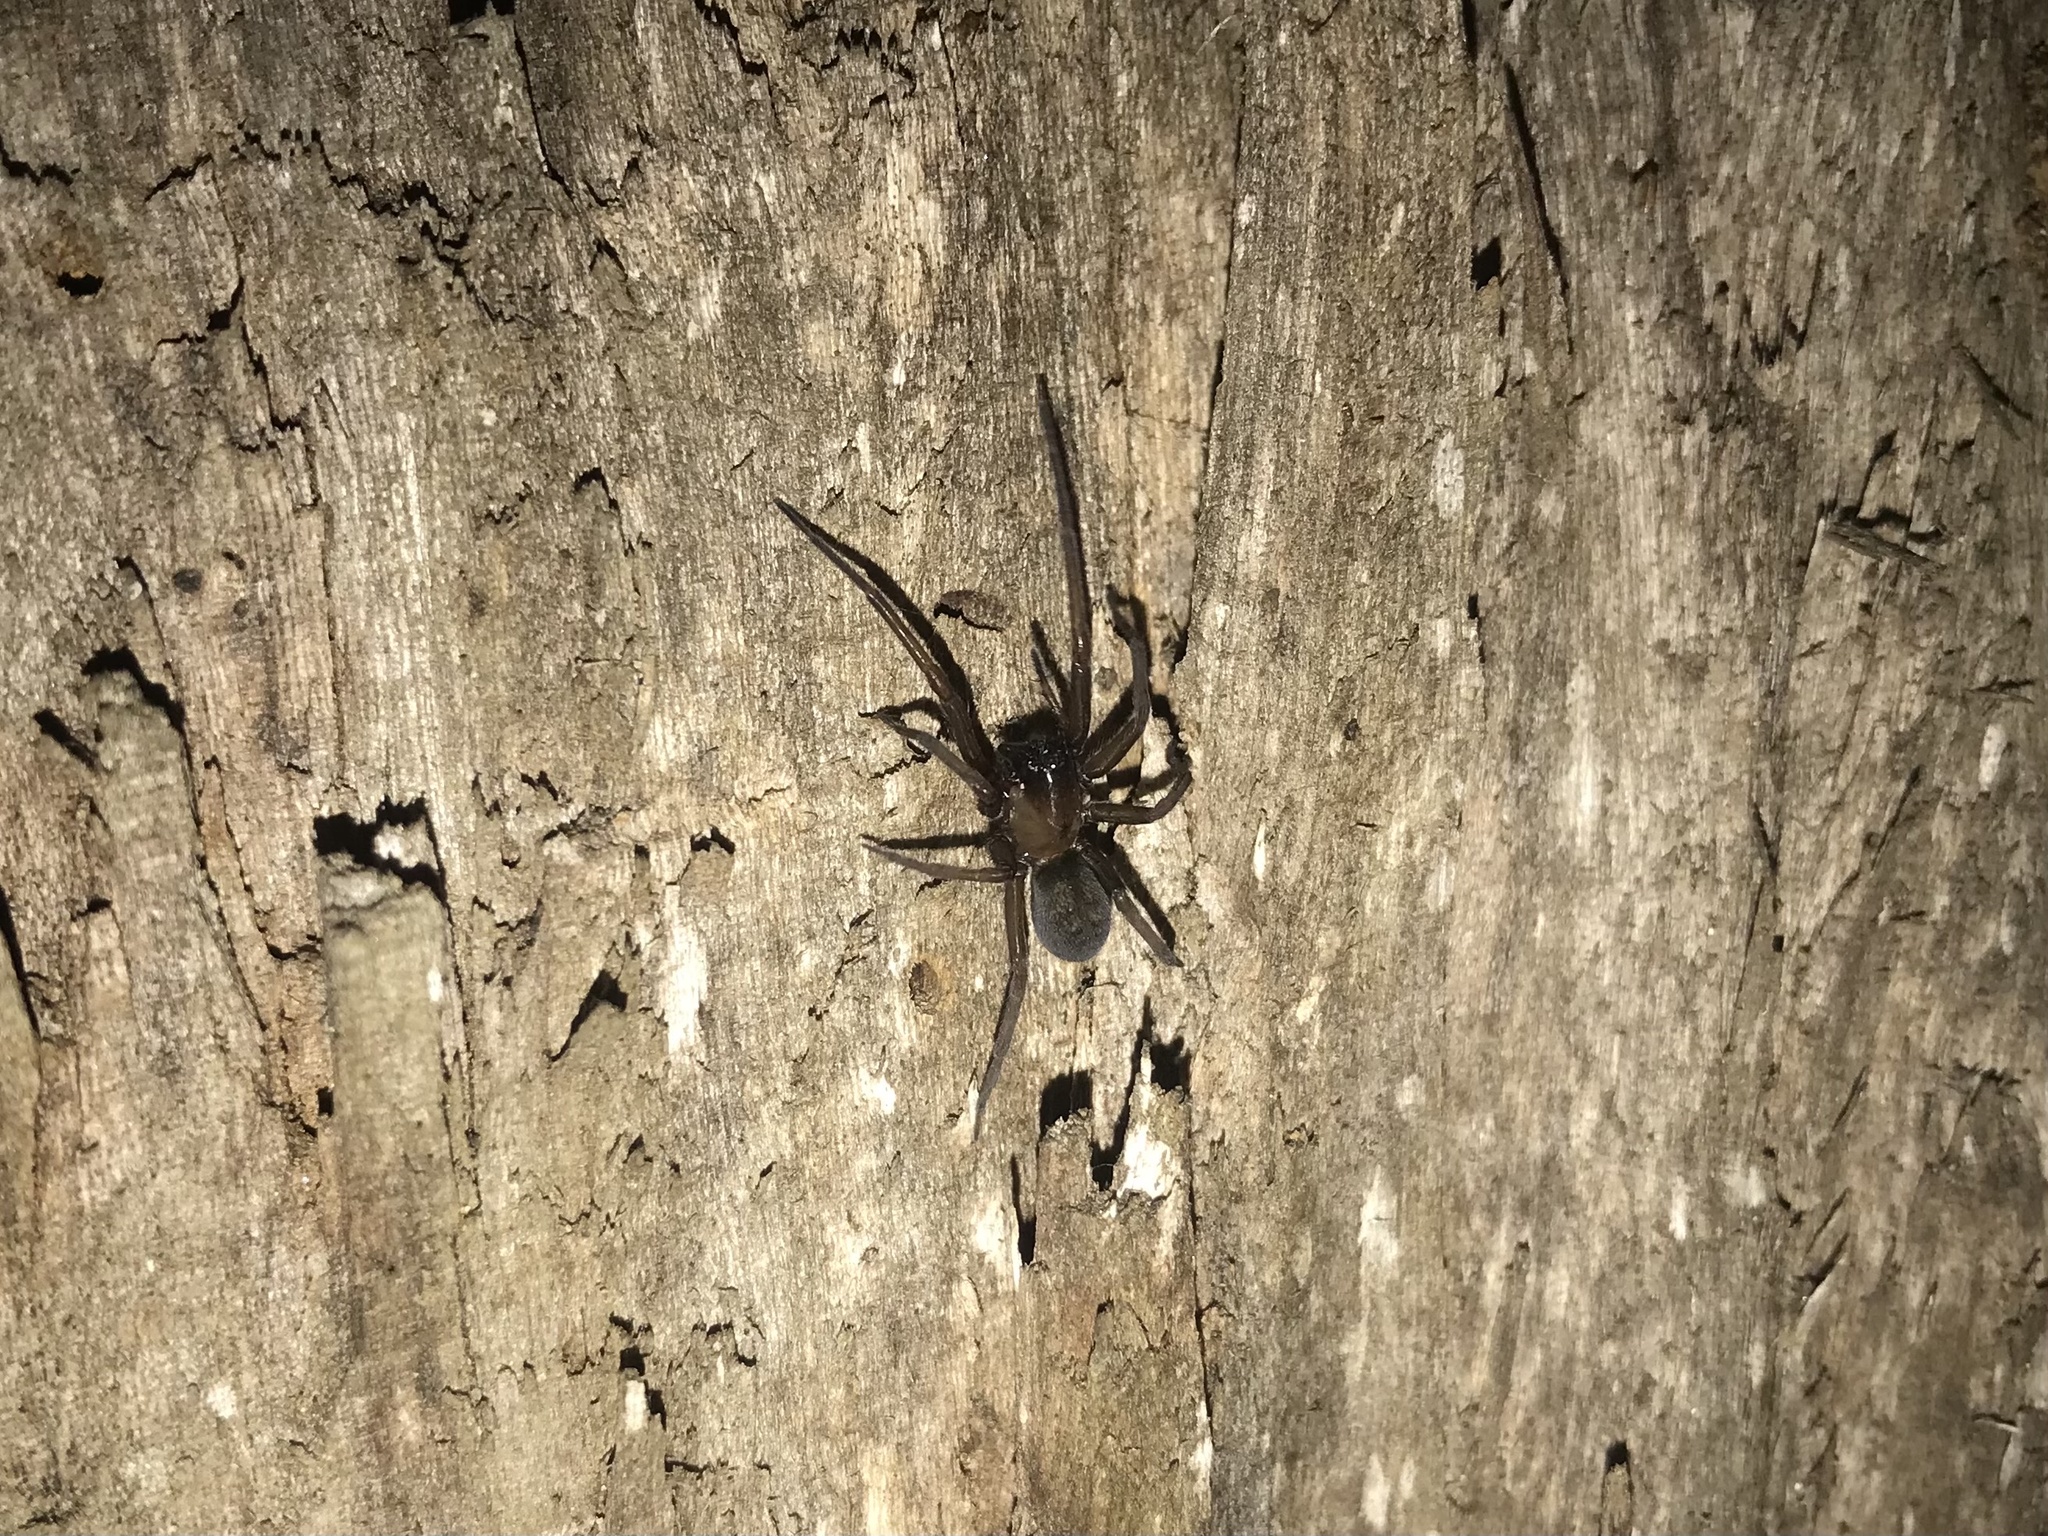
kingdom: Animalia
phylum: Arthropoda
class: Arachnida
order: Araneae
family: Desidae
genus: Metaltella
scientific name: Metaltella simoni
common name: Cribellate spider
